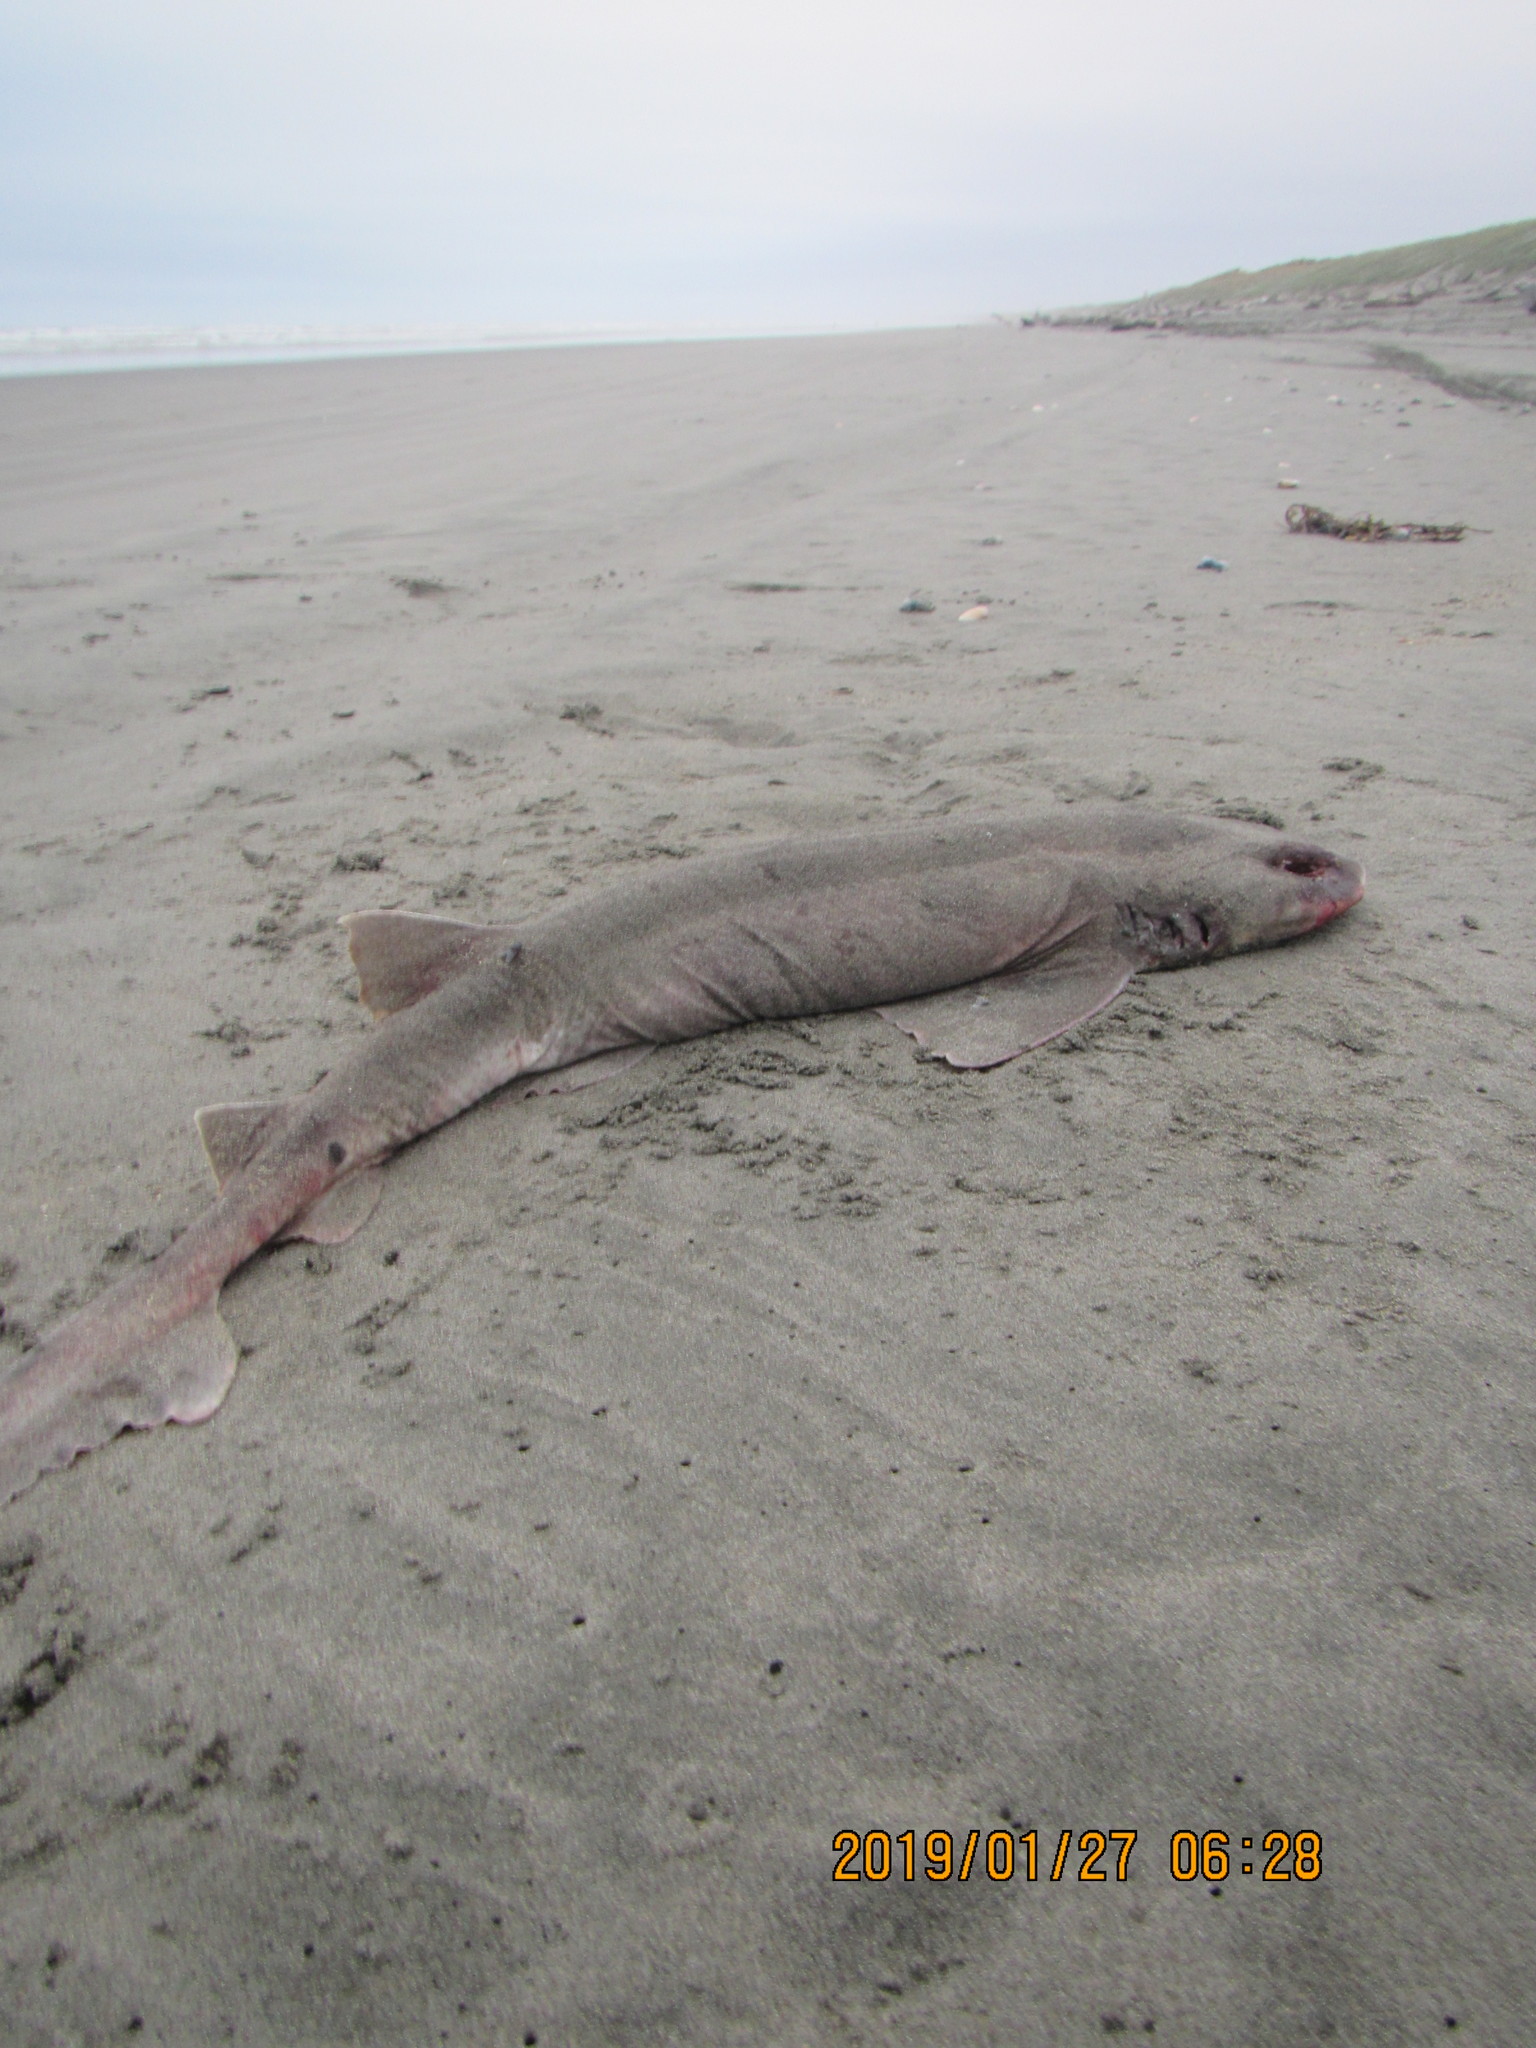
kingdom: Animalia
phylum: Chordata
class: Elasmobranchii
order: Carcharhiniformes
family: Scyliorhinidae
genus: Cephaloscyllium
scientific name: Cephaloscyllium isabellum
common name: Carpet shark
